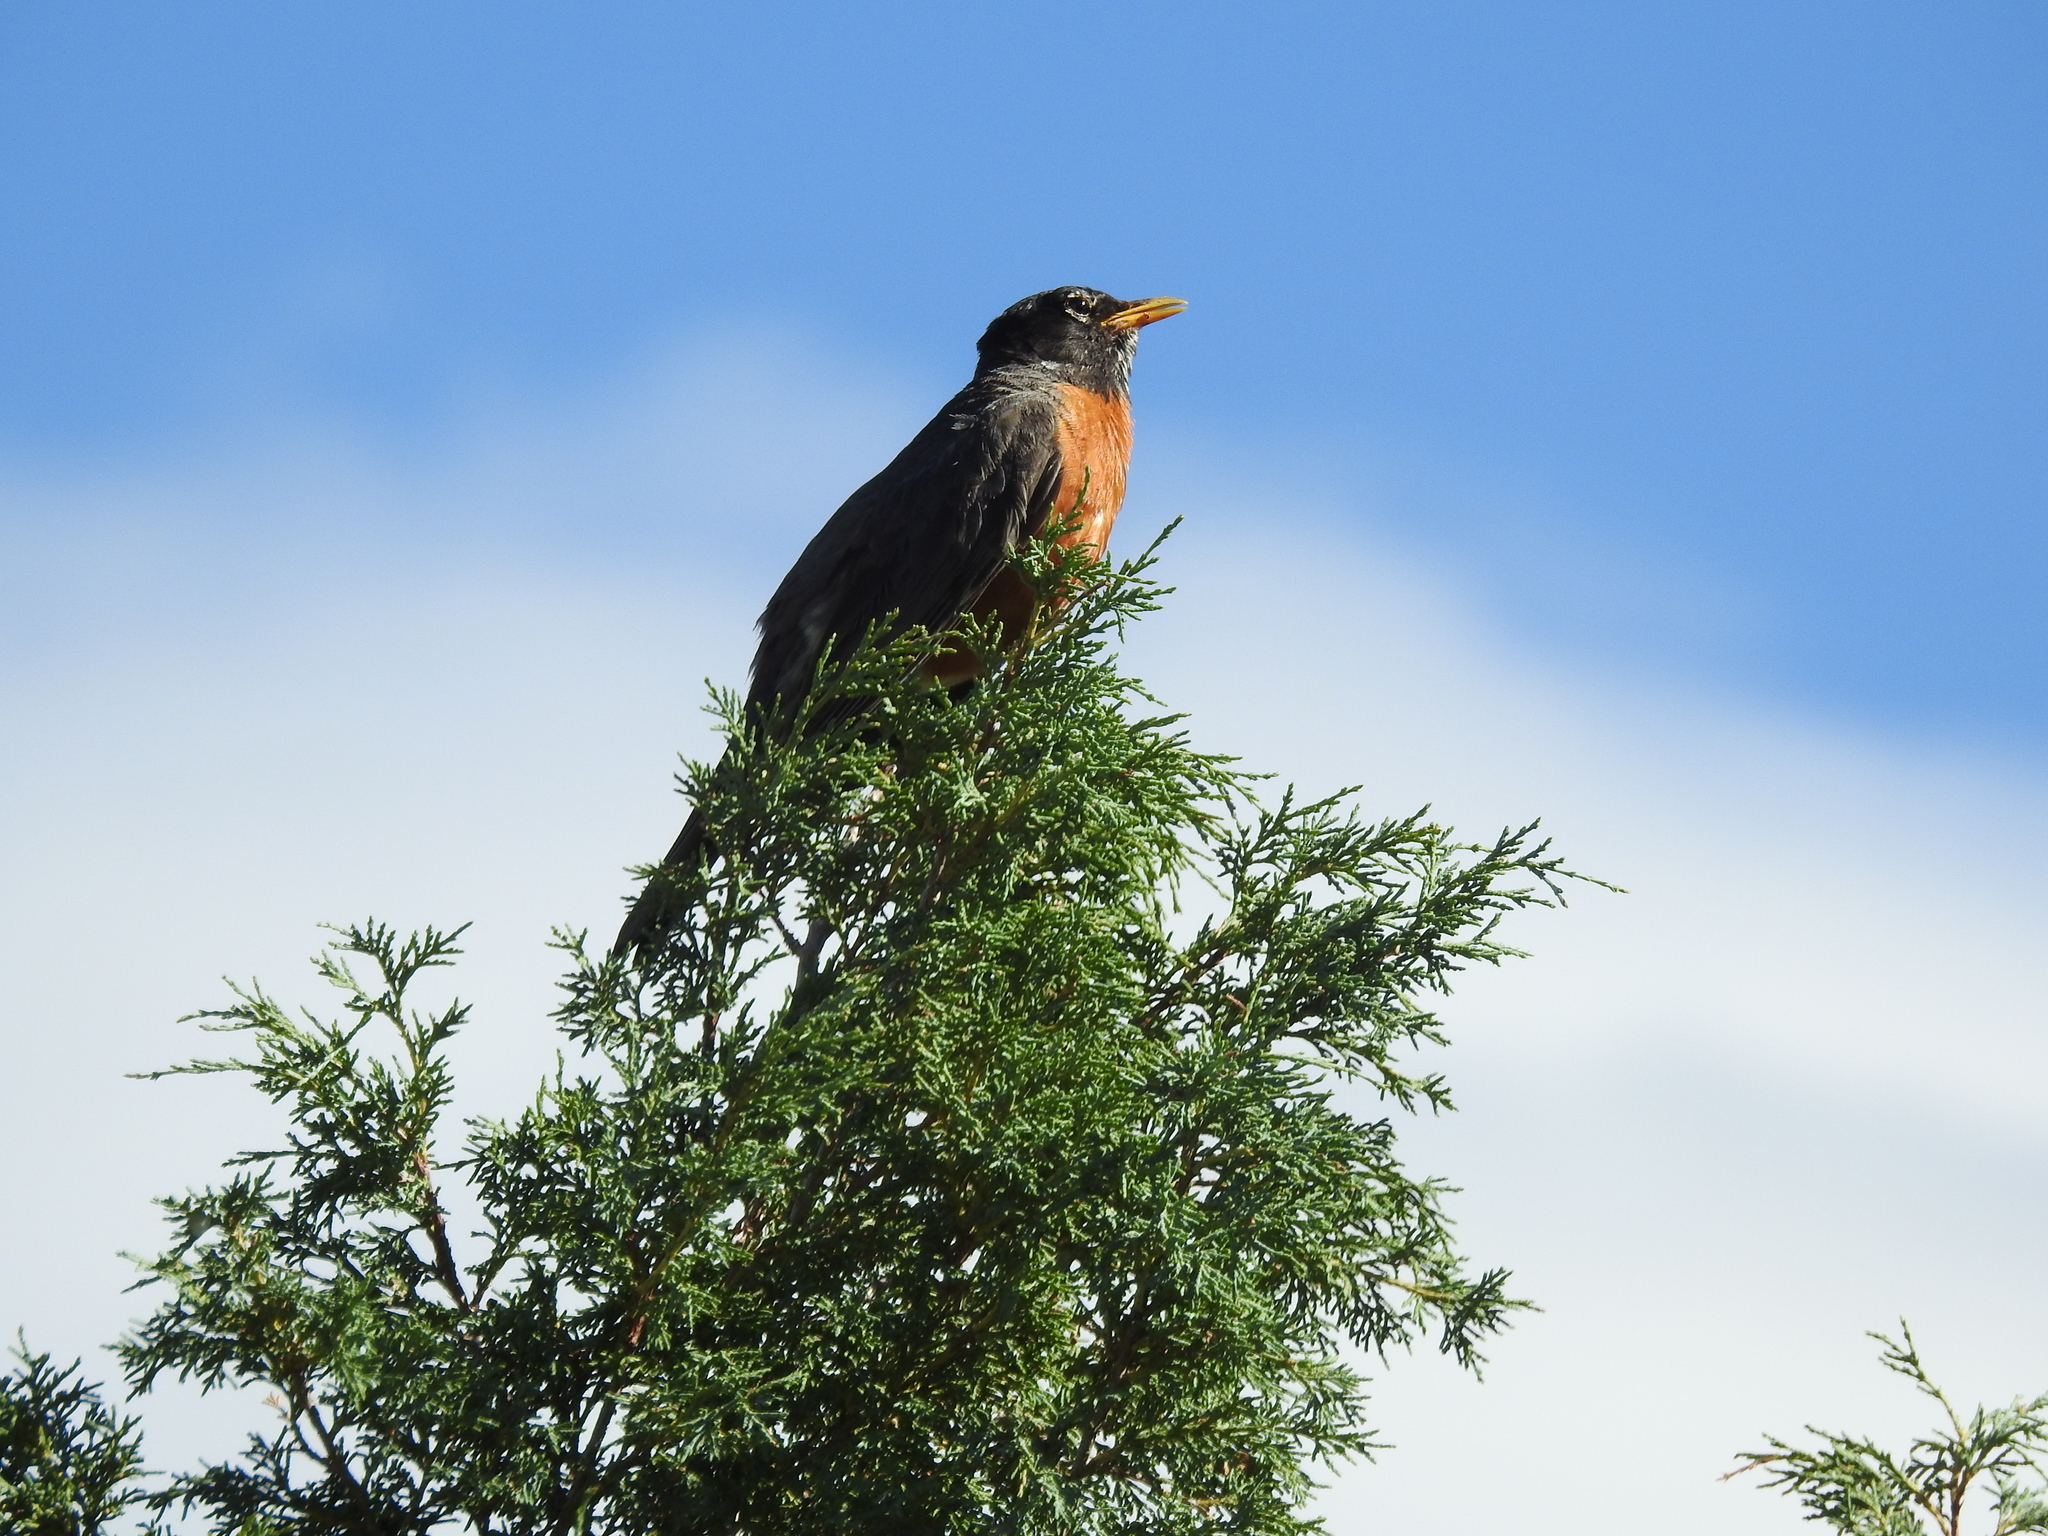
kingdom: Animalia
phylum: Chordata
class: Aves
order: Passeriformes
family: Turdidae
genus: Turdus
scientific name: Turdus migratorius
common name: American robin
